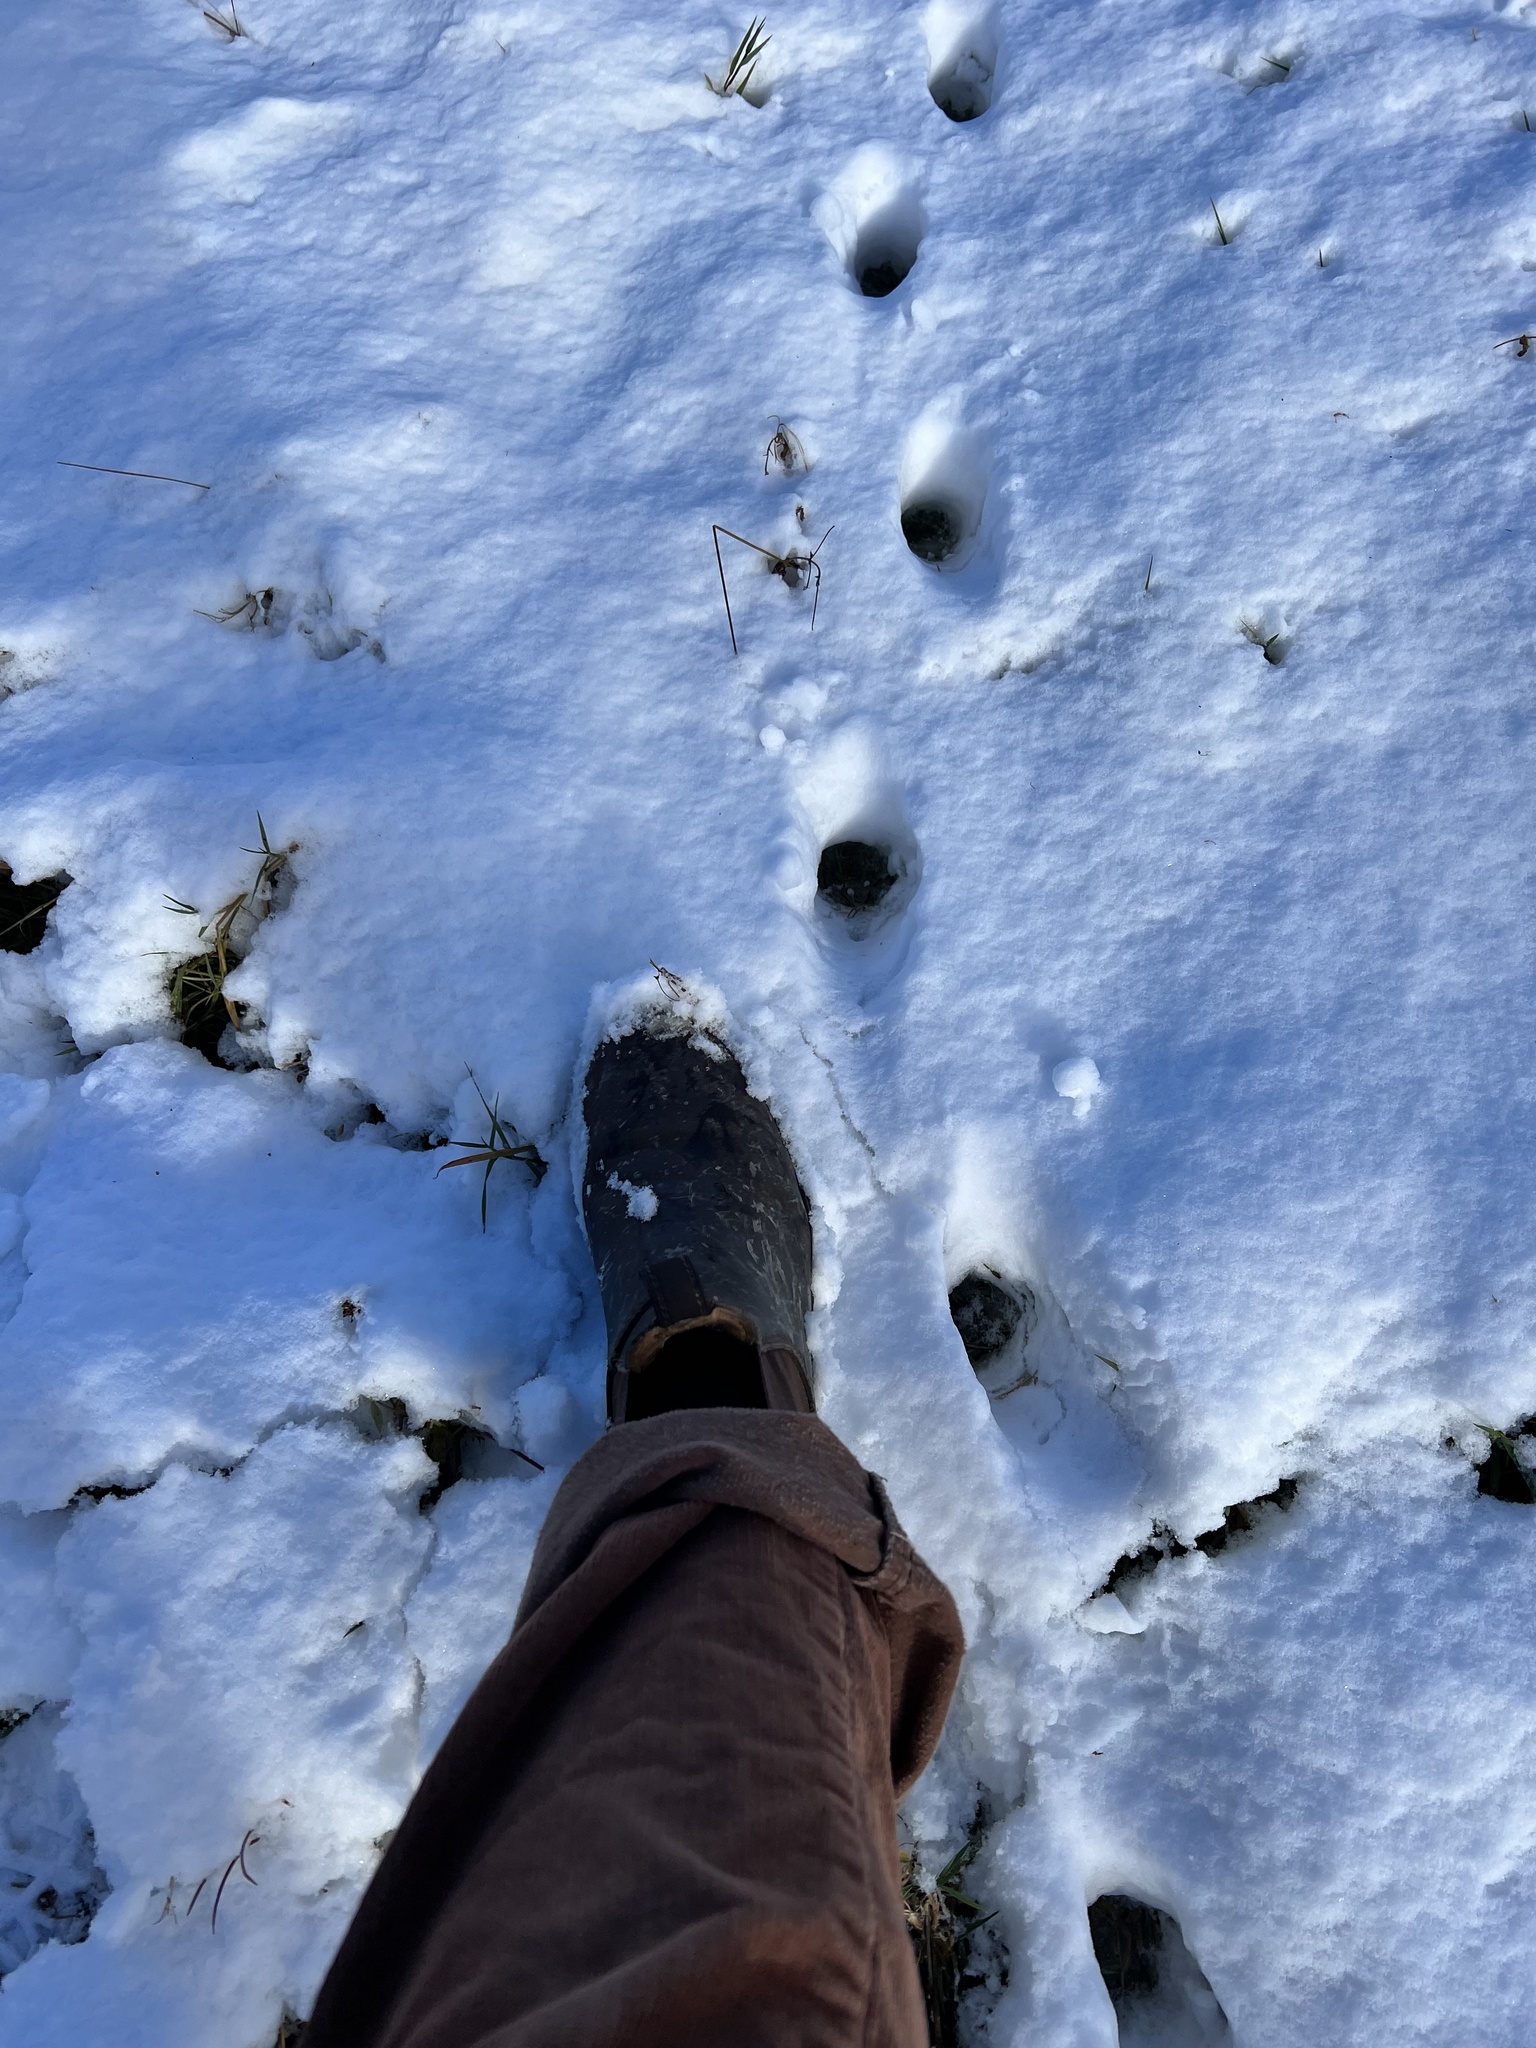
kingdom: Animalia
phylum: Chordata
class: Mammalia
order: Carnivora
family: Felidae
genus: Felis
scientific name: Felis catus
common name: Domestic cat
